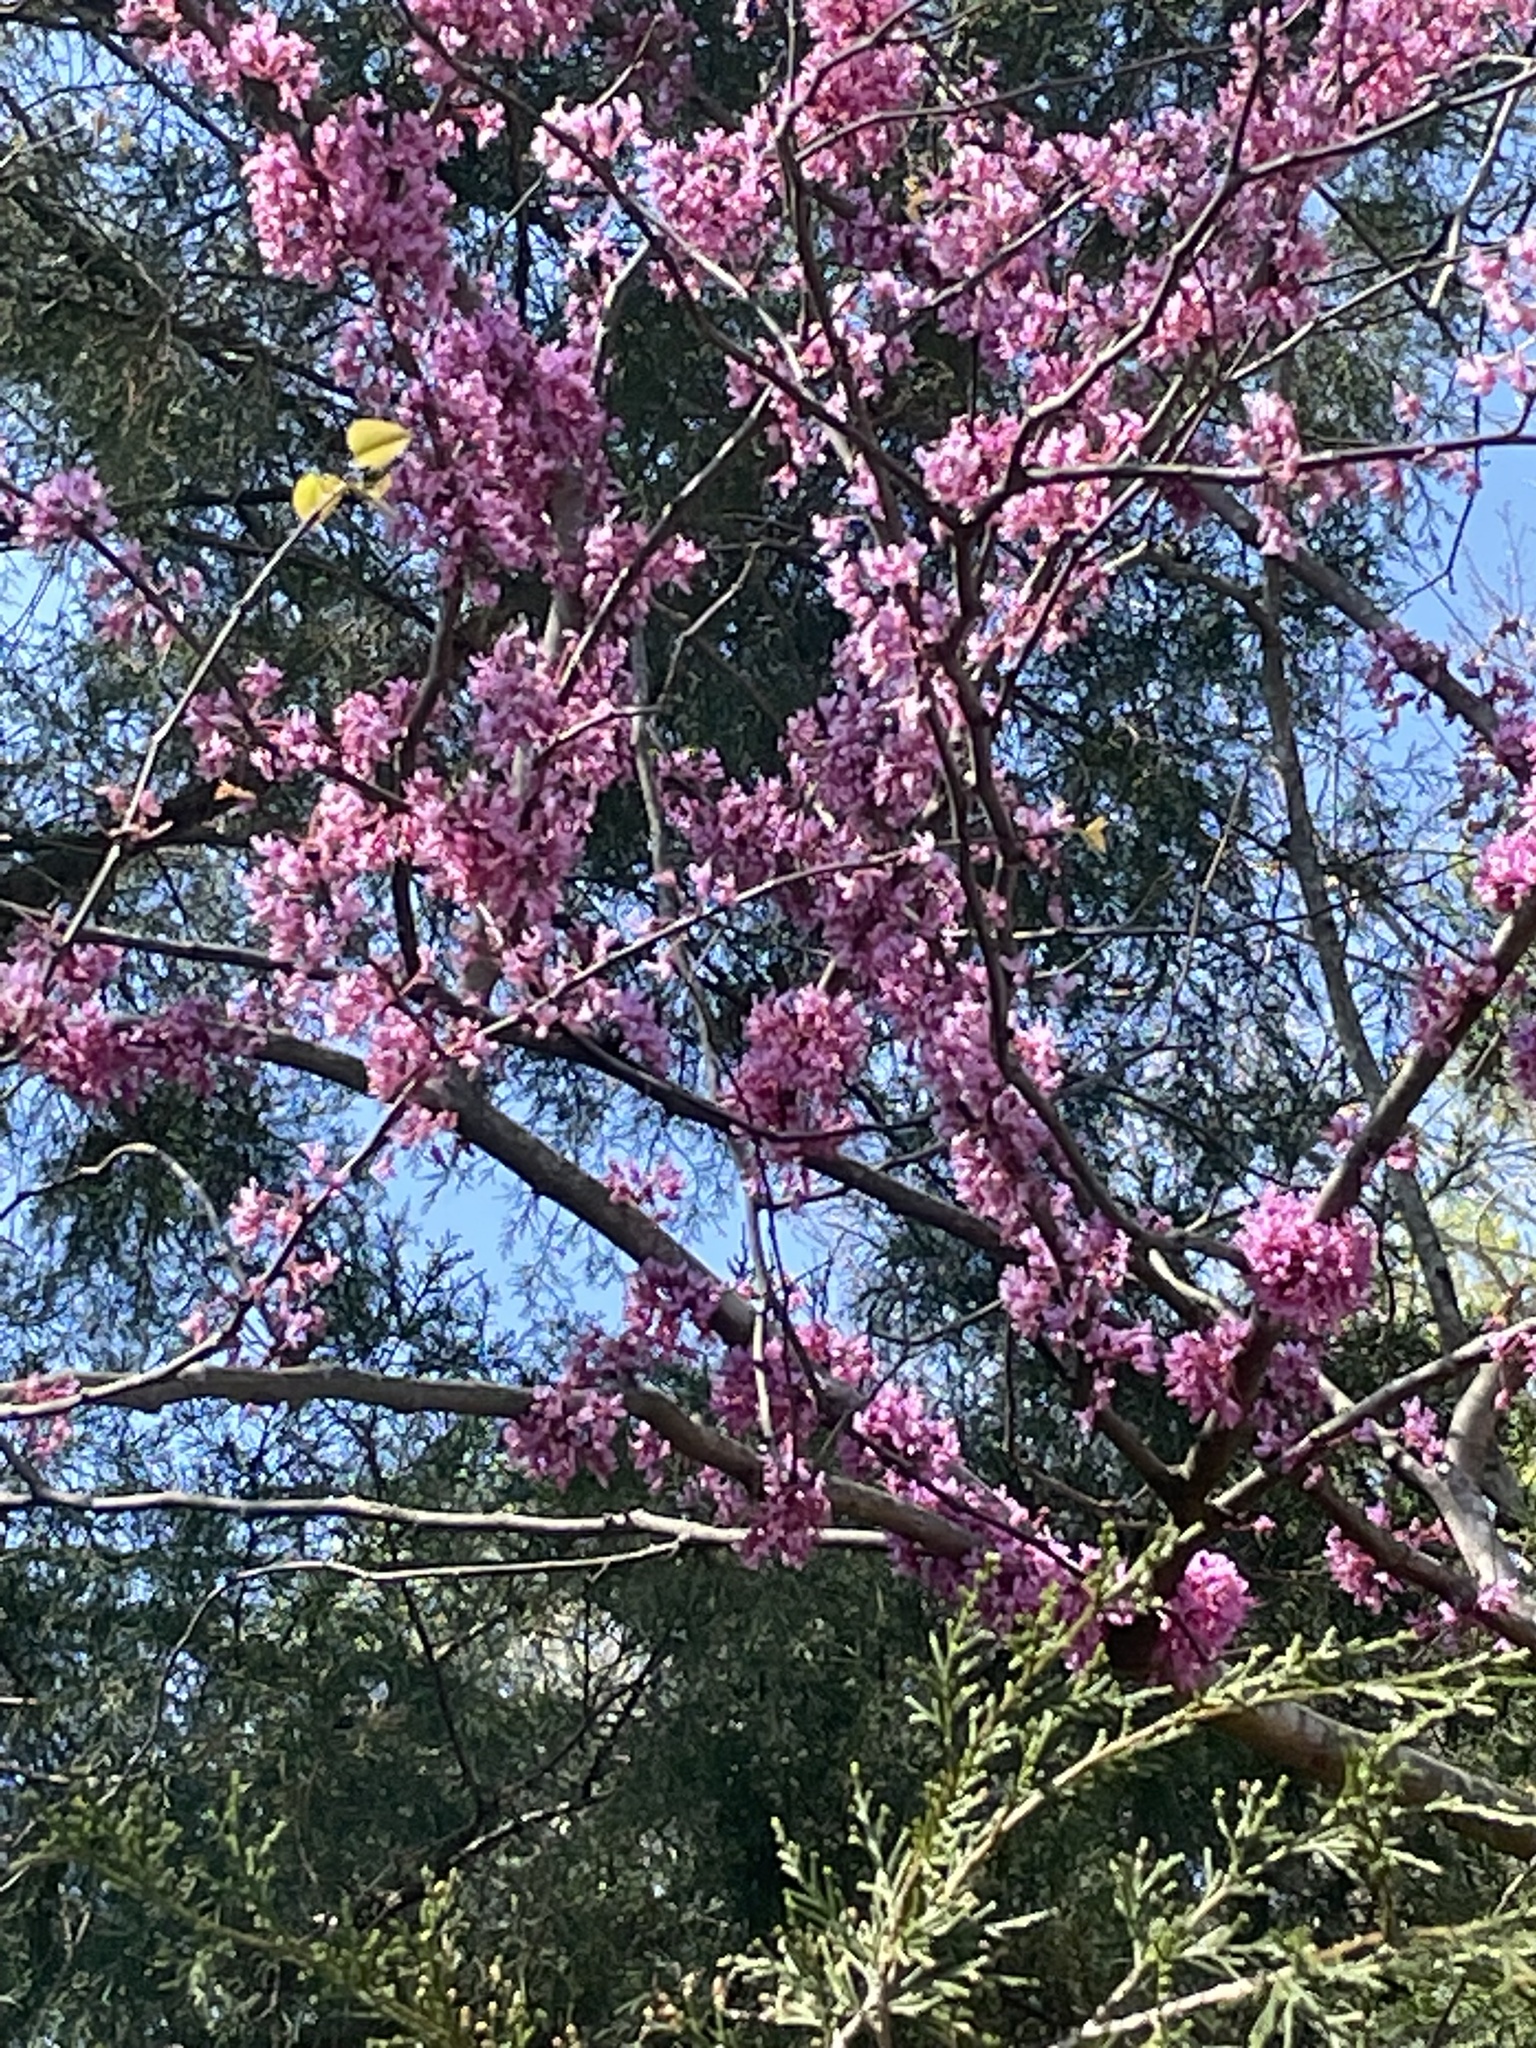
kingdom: Plantae
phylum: Tracheophyta
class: Magnoliopsida
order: Fabales
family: Fabaceae
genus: Cercis
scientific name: Cercis canadensis
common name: Eastern redbud
